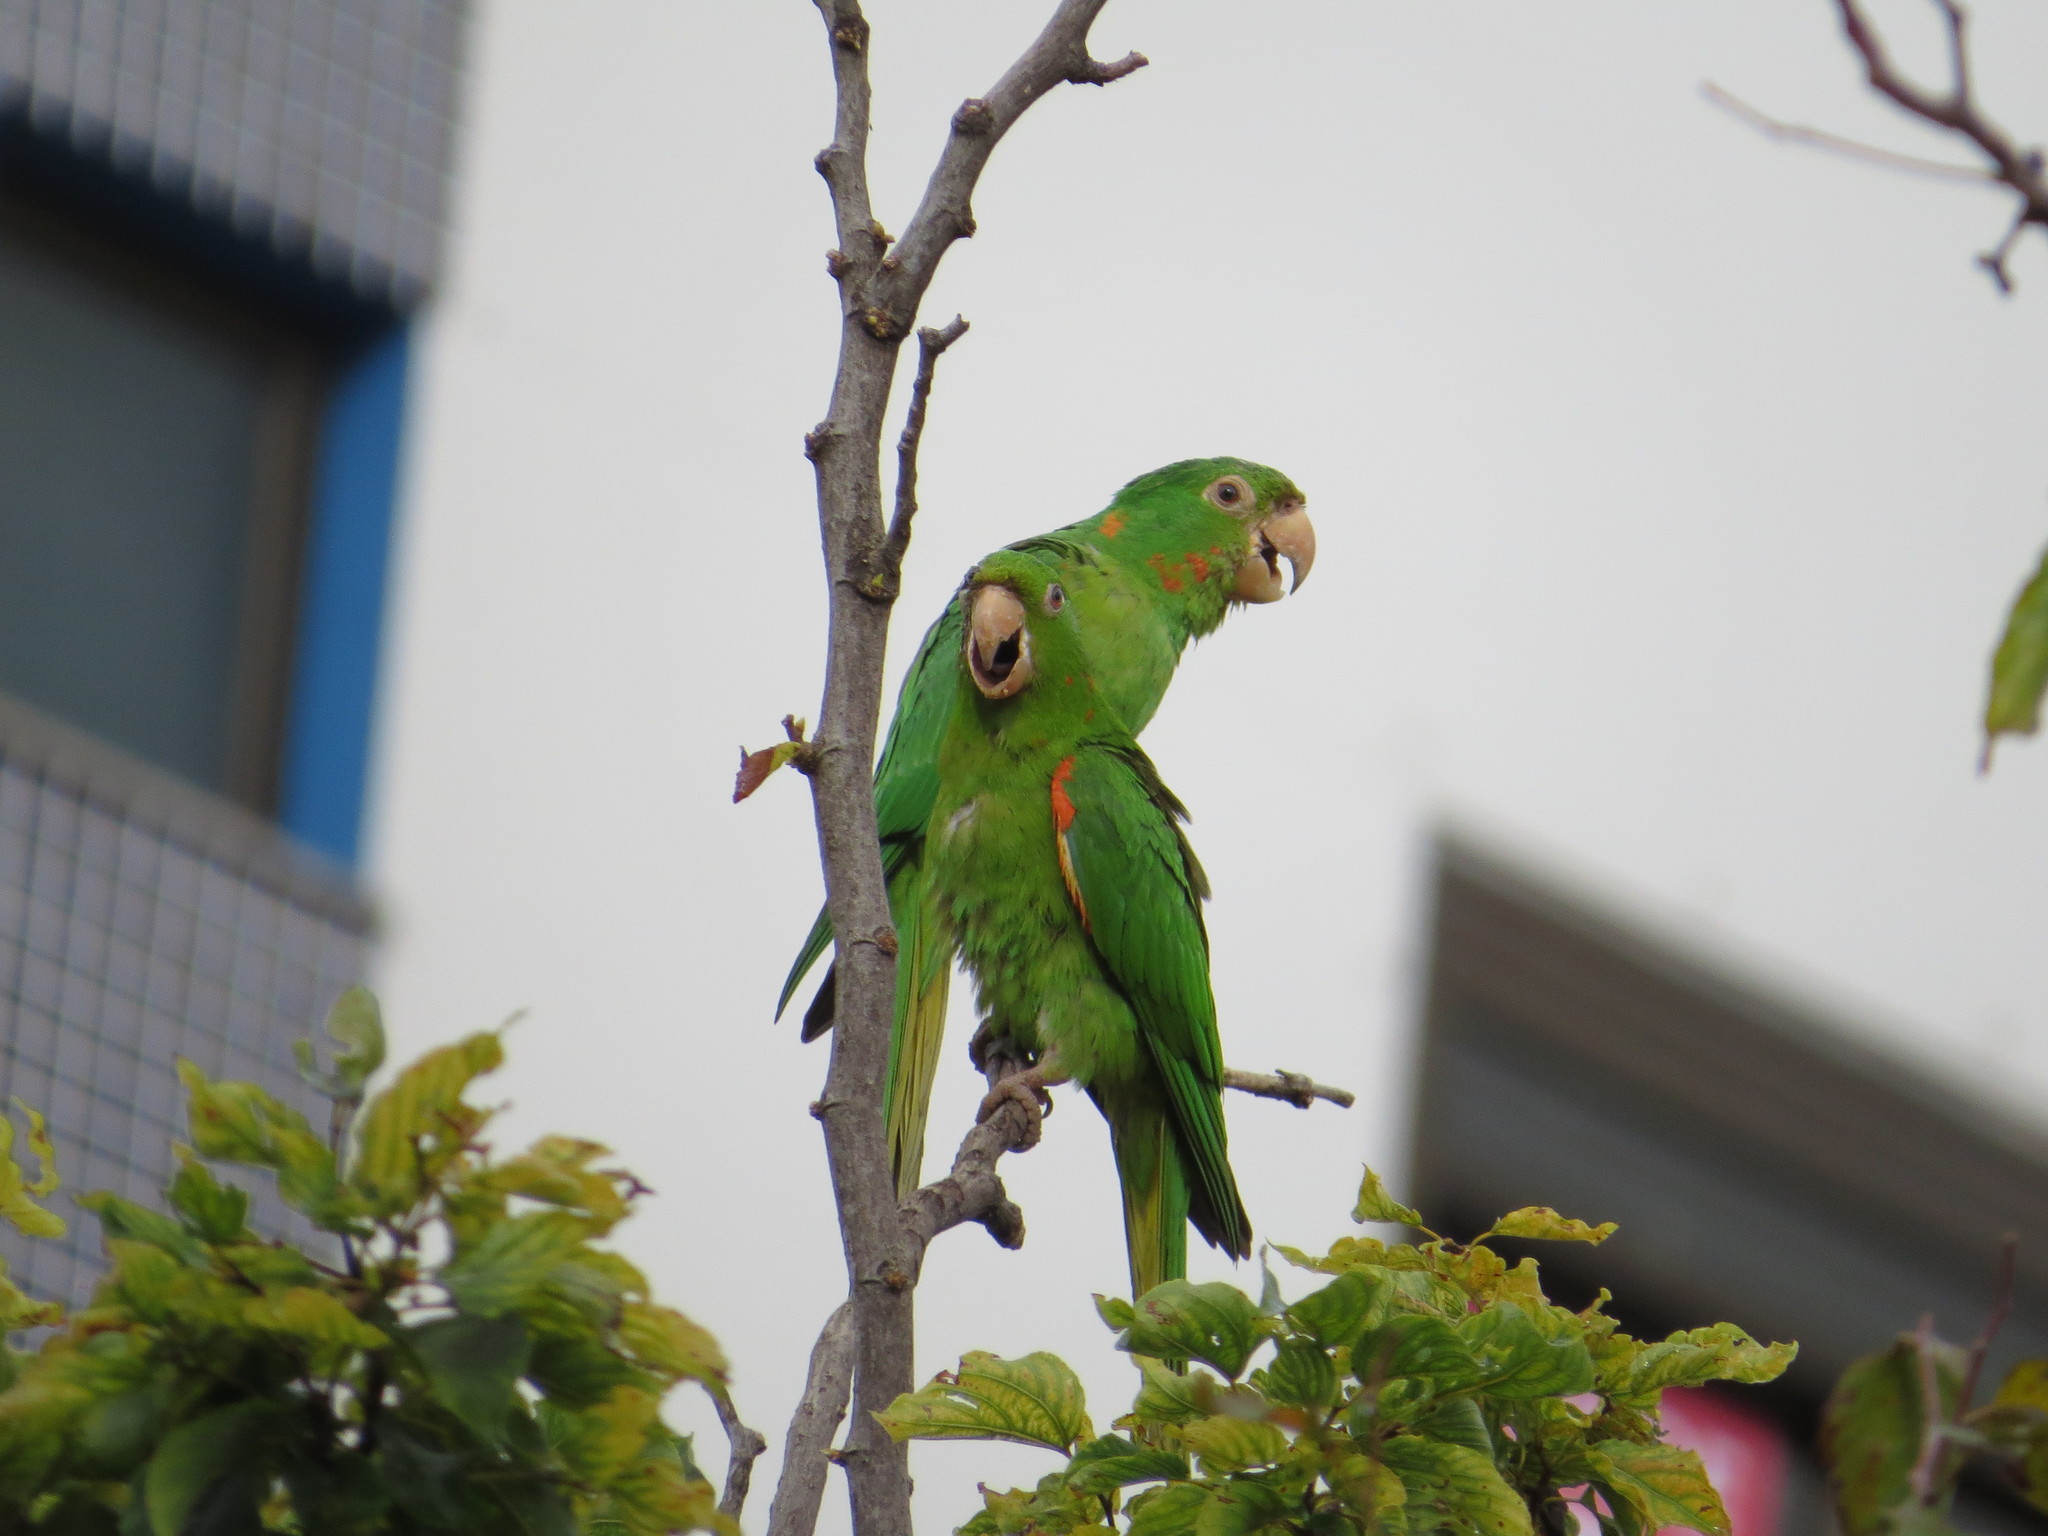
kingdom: Animalia
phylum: Chordata
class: Aves
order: Psittaciformes
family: Psittacidae
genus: Aratinga
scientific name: Aratinga leucophthalma
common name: White-eyed parakeet
